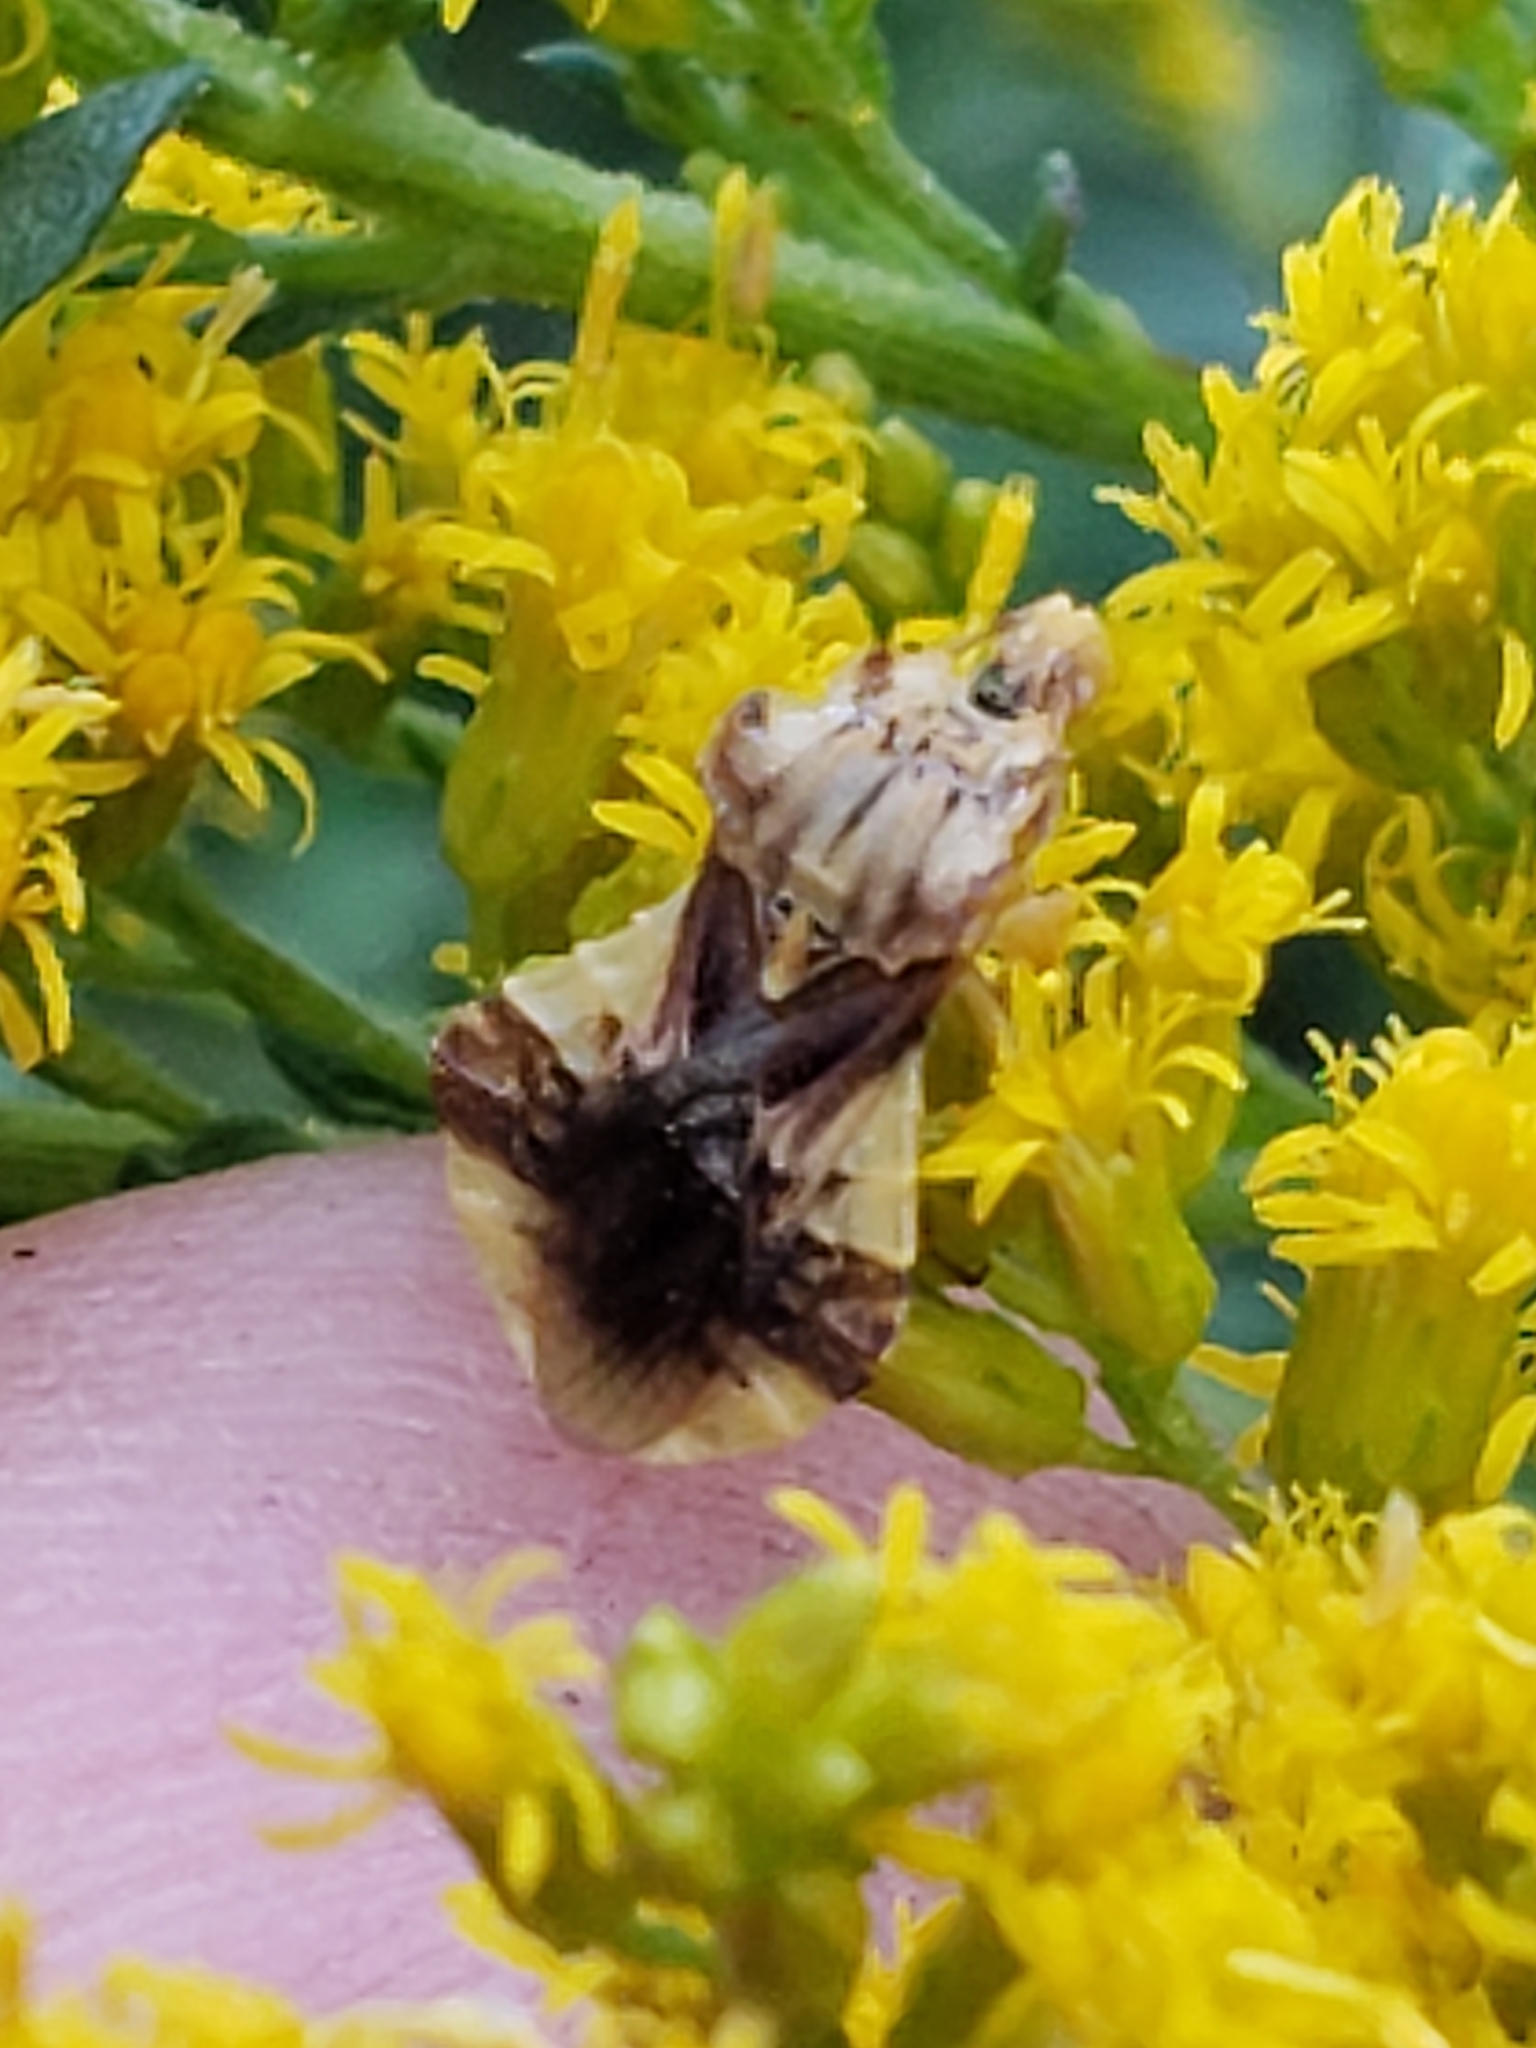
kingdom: Animalia
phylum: Arthropoda
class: Insecta
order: Hemiptera
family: Reduviidae
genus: Phymata
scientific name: Phymata fasciata
